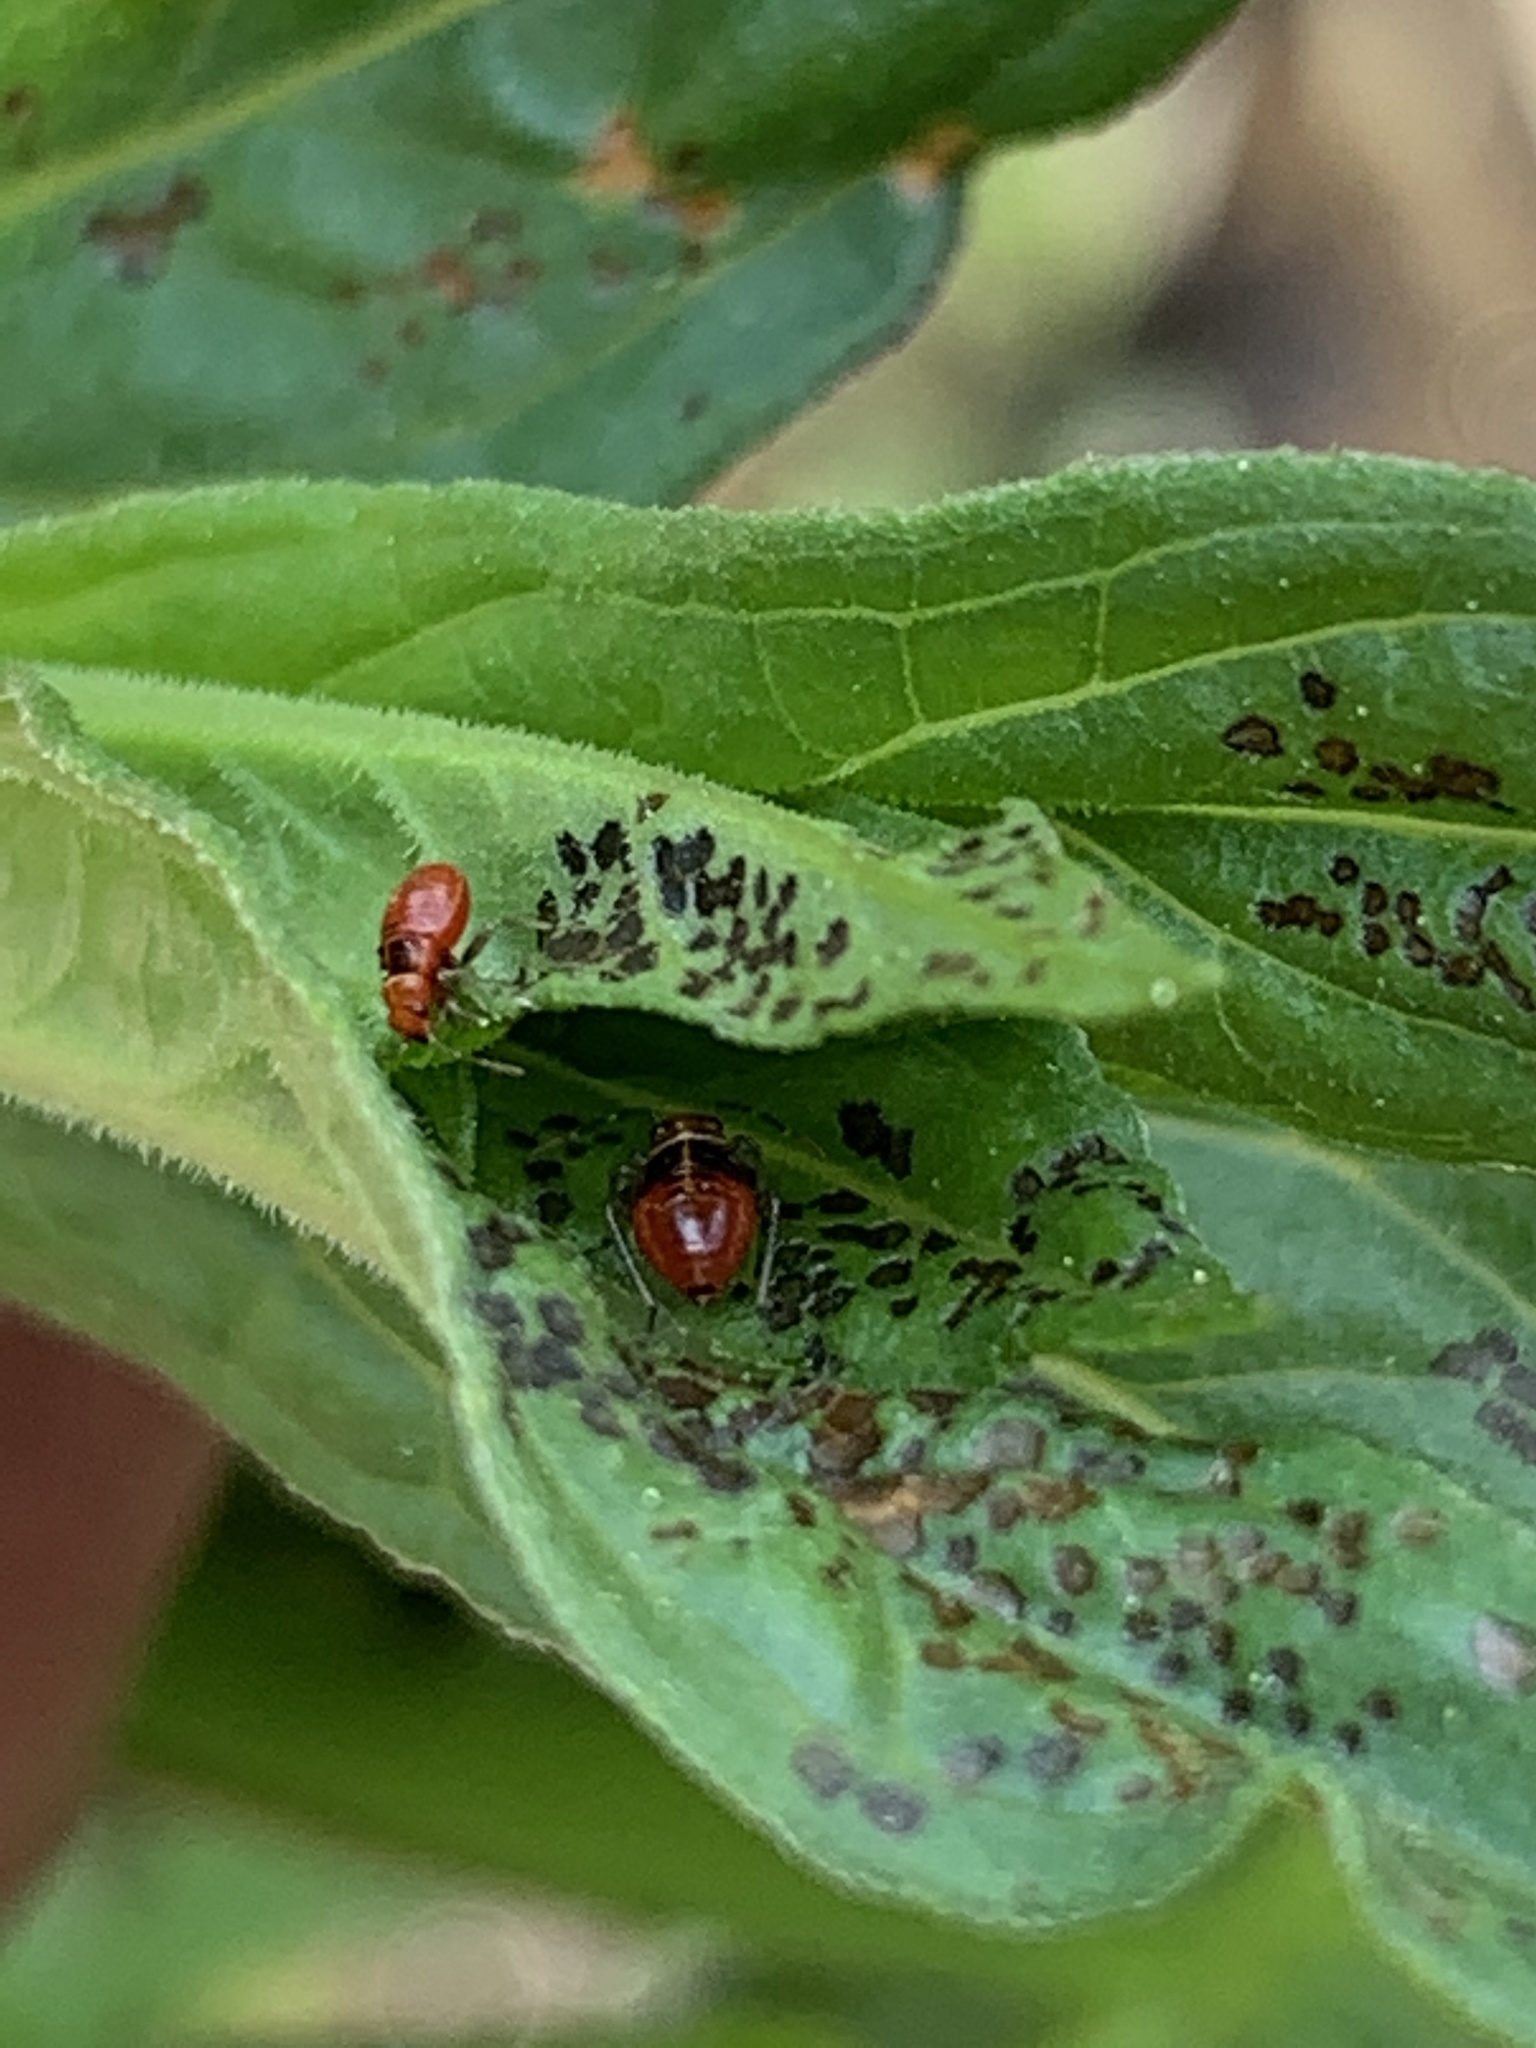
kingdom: Animalia
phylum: Arthropoda
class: Insecta
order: Hemiptera
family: Miridae
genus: Poecilocapsus
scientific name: Poecilocapsus lineatus
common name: Four-lined plant bug
